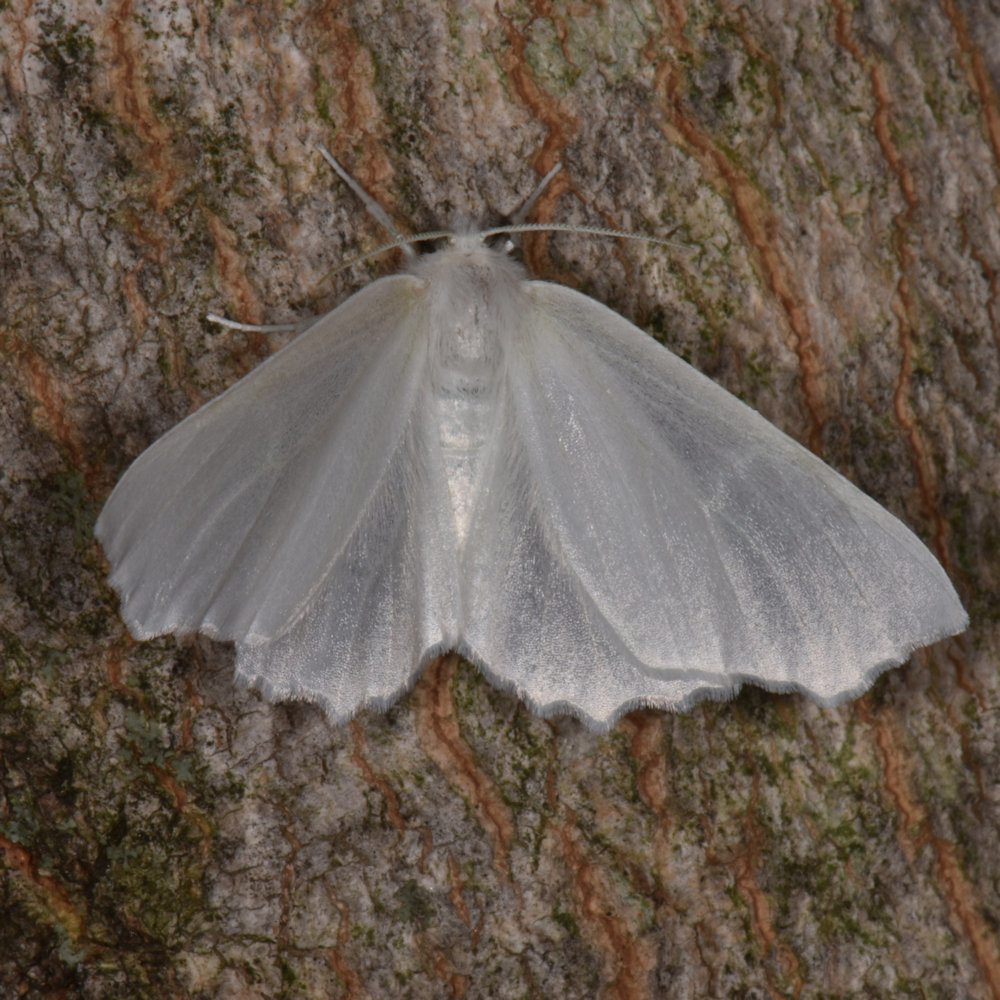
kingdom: Animalia
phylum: Arthropoda
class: Insecta
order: Lepidoptera
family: Geometridae
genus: Ennomos
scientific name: Ennomos subsignaria
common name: Elm spanworm
